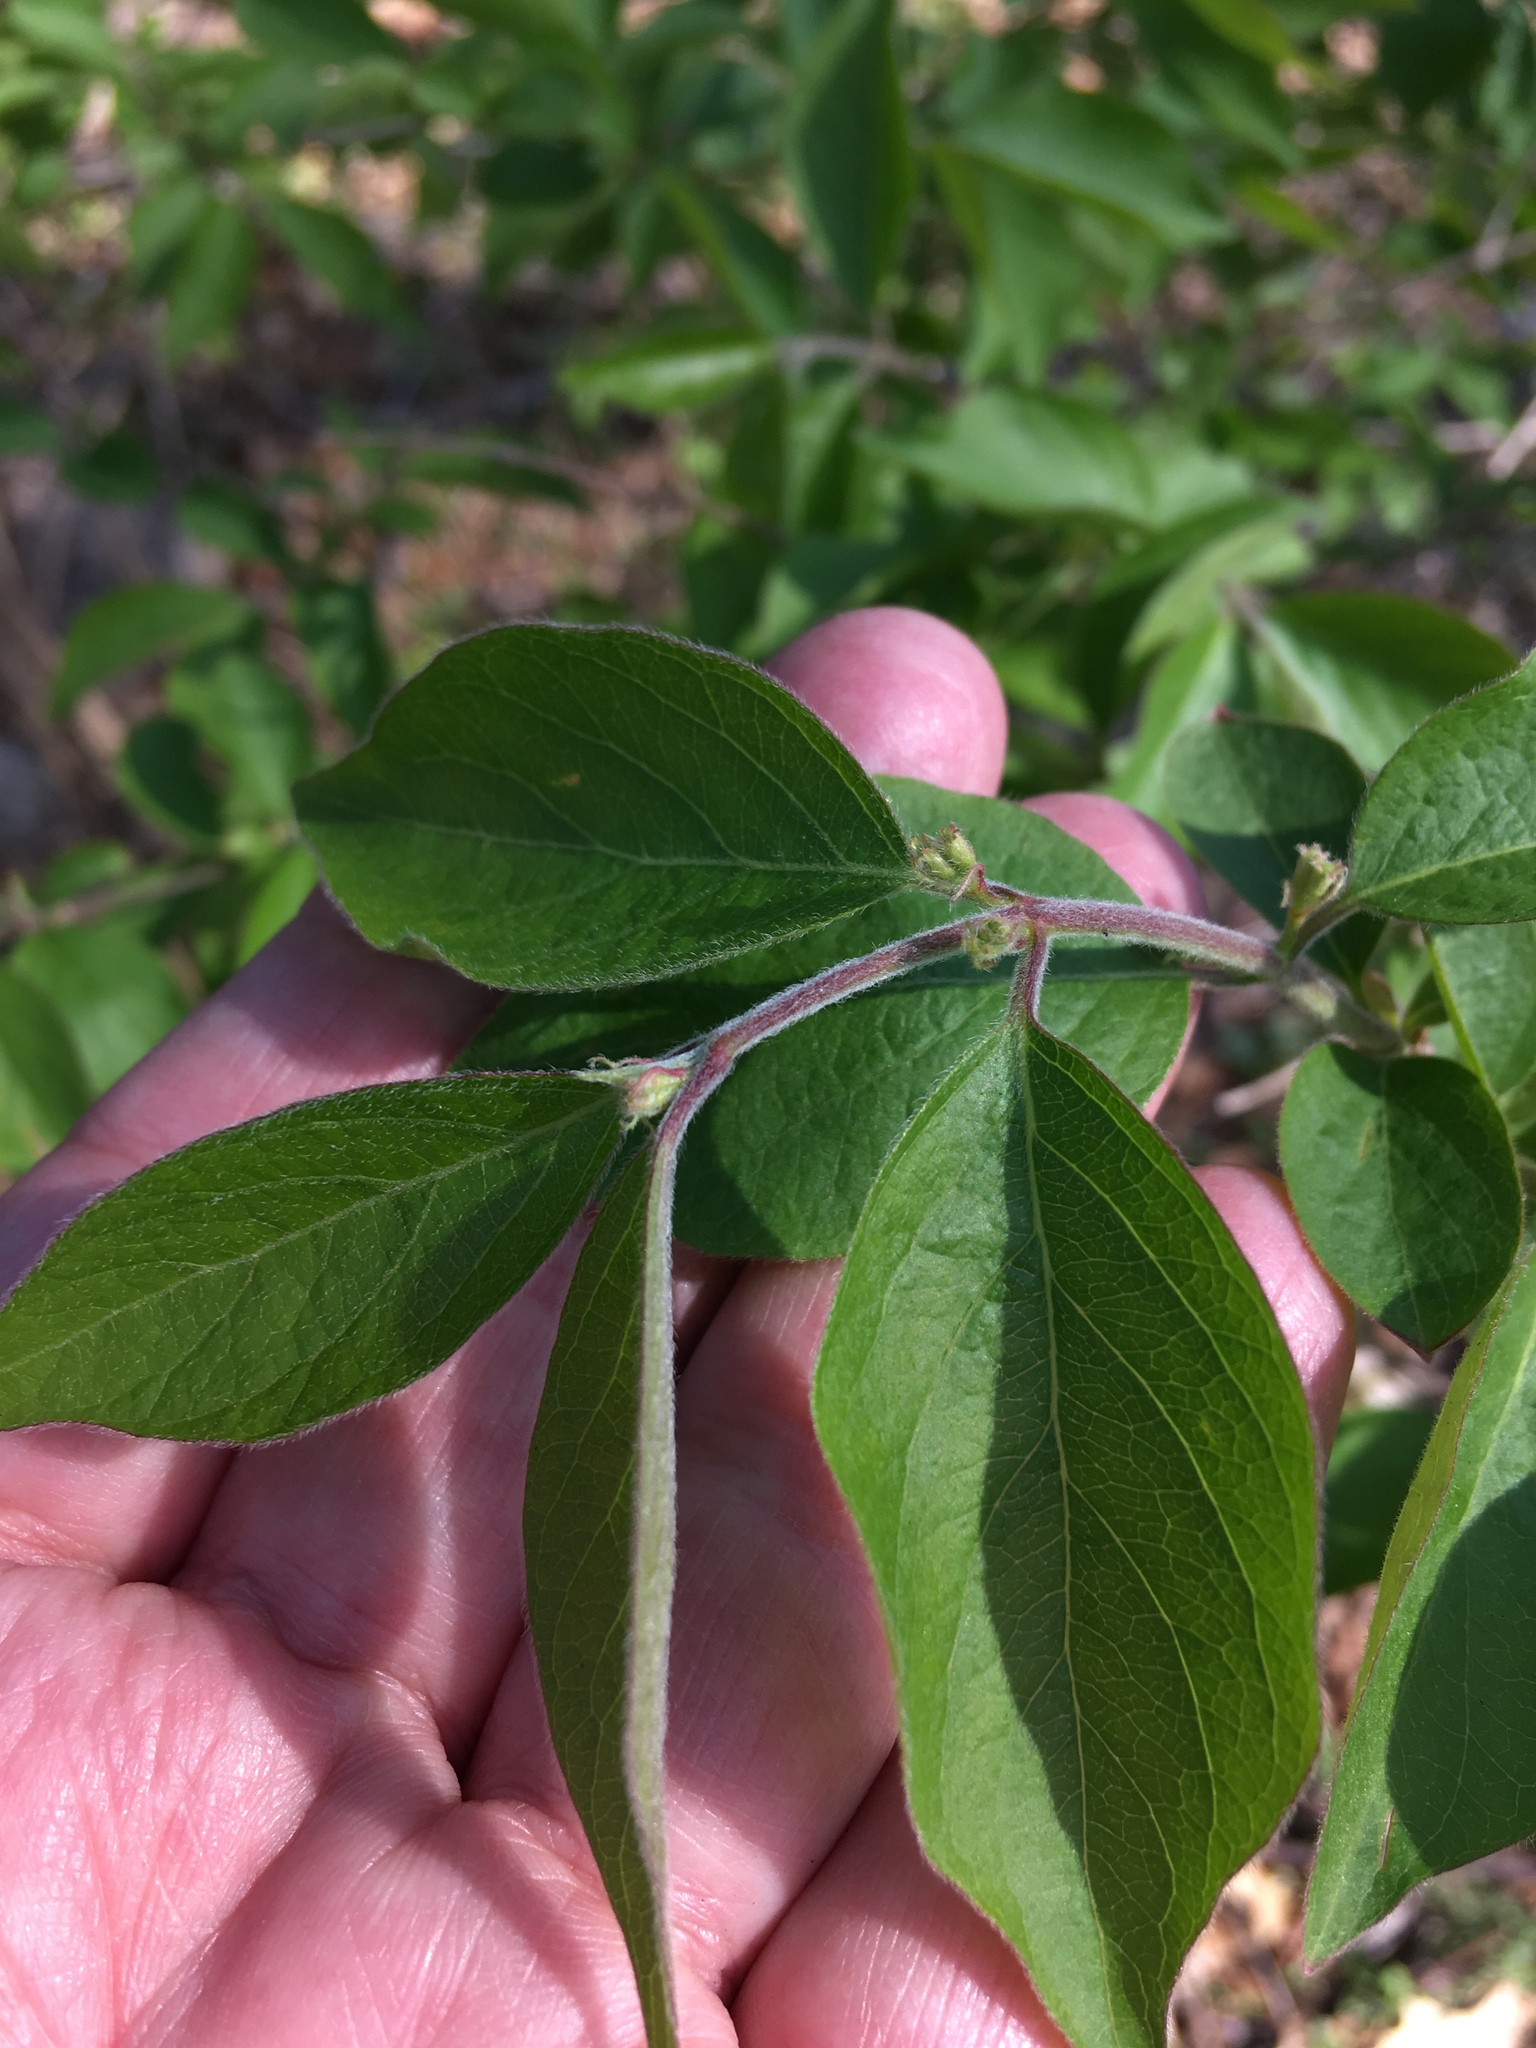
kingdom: Plantae
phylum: Tracheophyta
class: Magnoliopsida
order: Dipsacales
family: Caprifoliaceae
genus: Lonicera
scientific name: Lonicera maackii
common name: Amur honeysuckle
